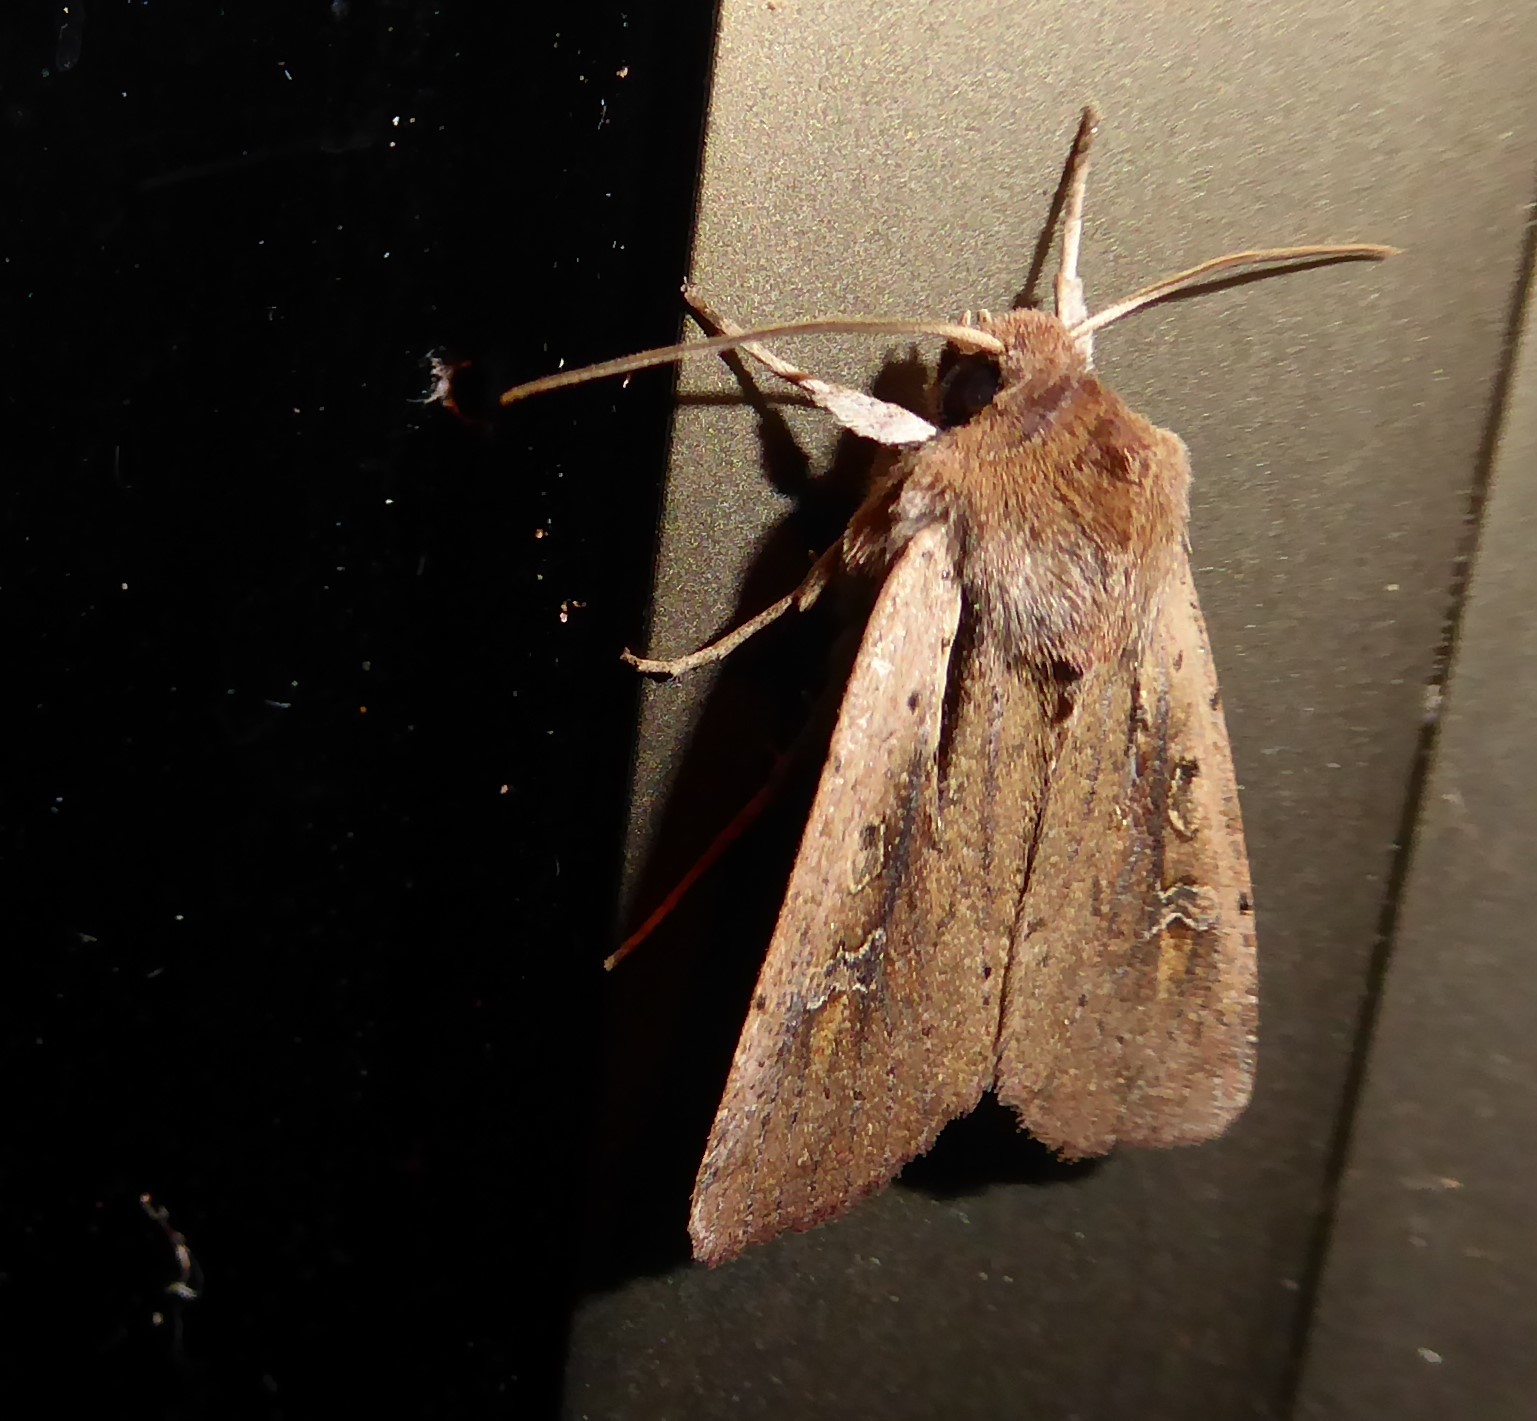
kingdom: Animalia
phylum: Arthropoda
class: Insecta
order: Lepidoptera
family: Noctuidae
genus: Ichneutica
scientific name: Ichneutica atristriga
